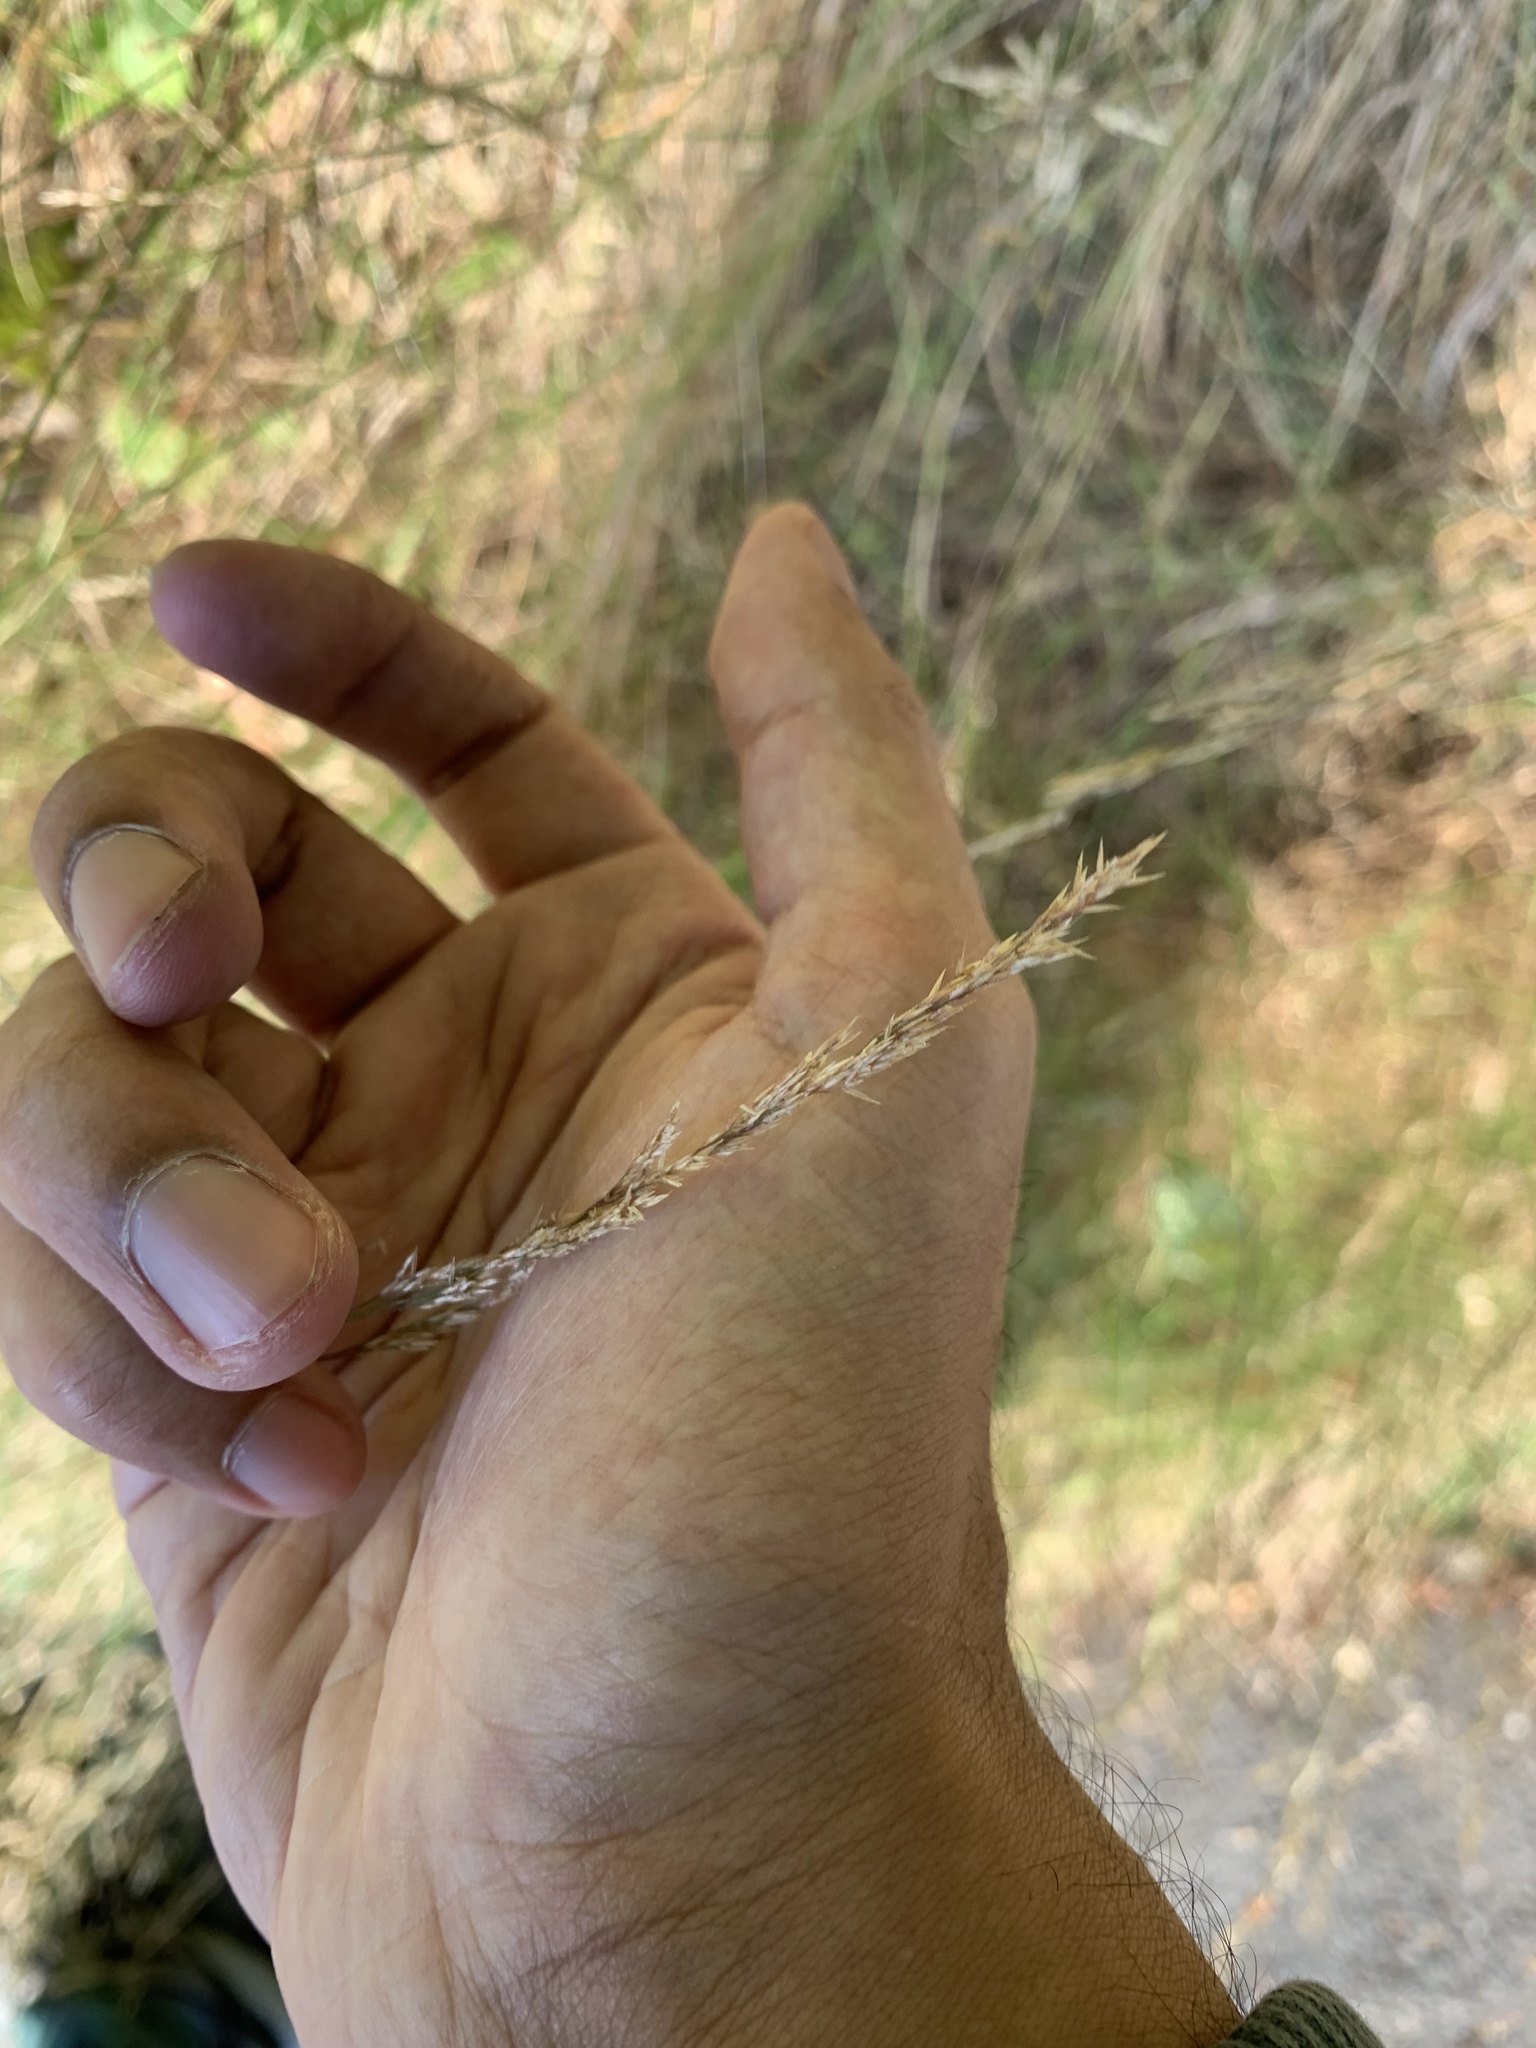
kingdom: Plantae
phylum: Tracheophyta
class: Liliopsida
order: Poales
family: Poaceae
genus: Agrostis
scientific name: Agrostis stolonifera
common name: Creeping bentgrass
